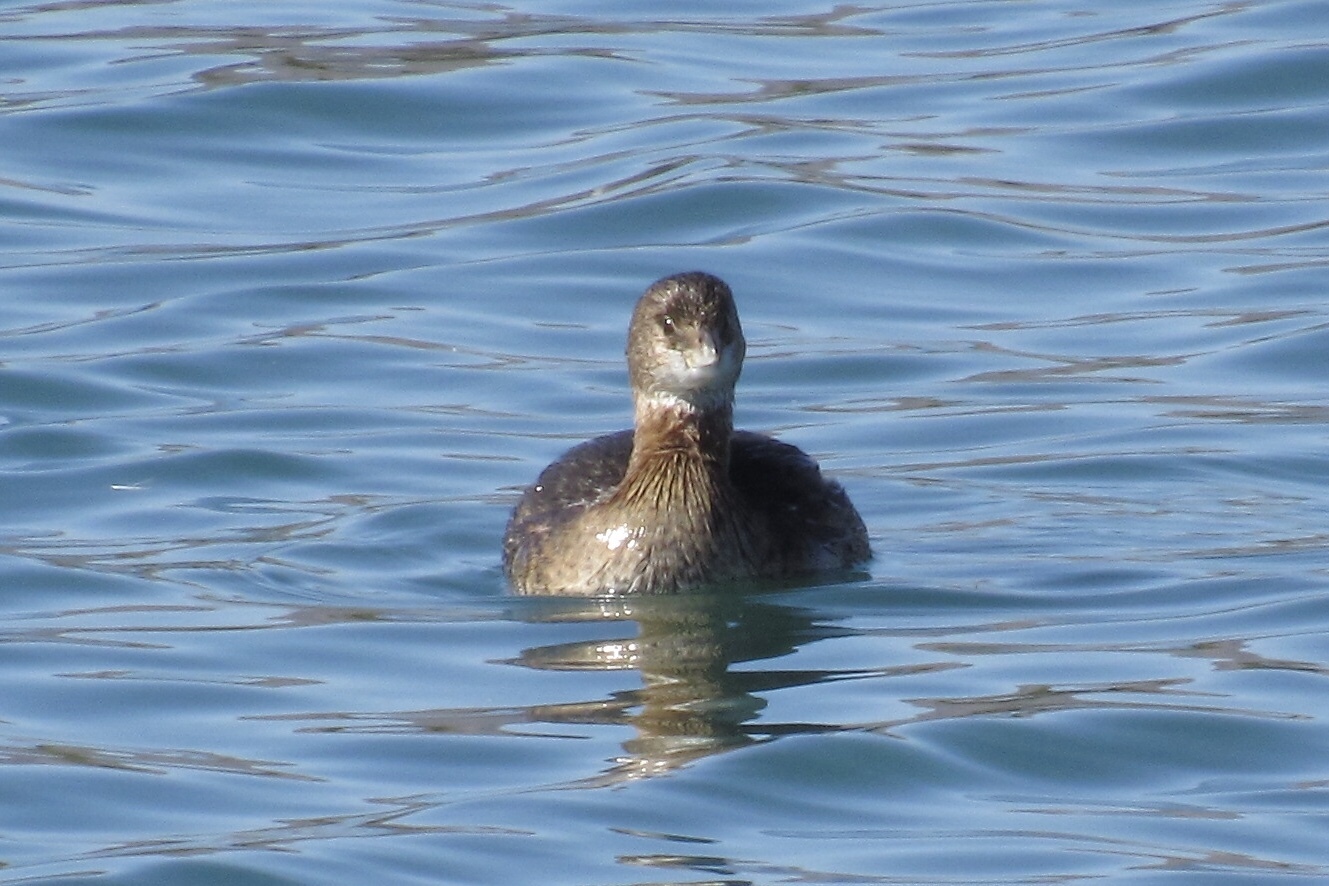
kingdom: Animalia
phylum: Chordata
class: Aves
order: Podicipediformes
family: Podicipedidae
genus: Podilymbus
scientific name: Podilymbus podiceps
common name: Pied-billed grebe
